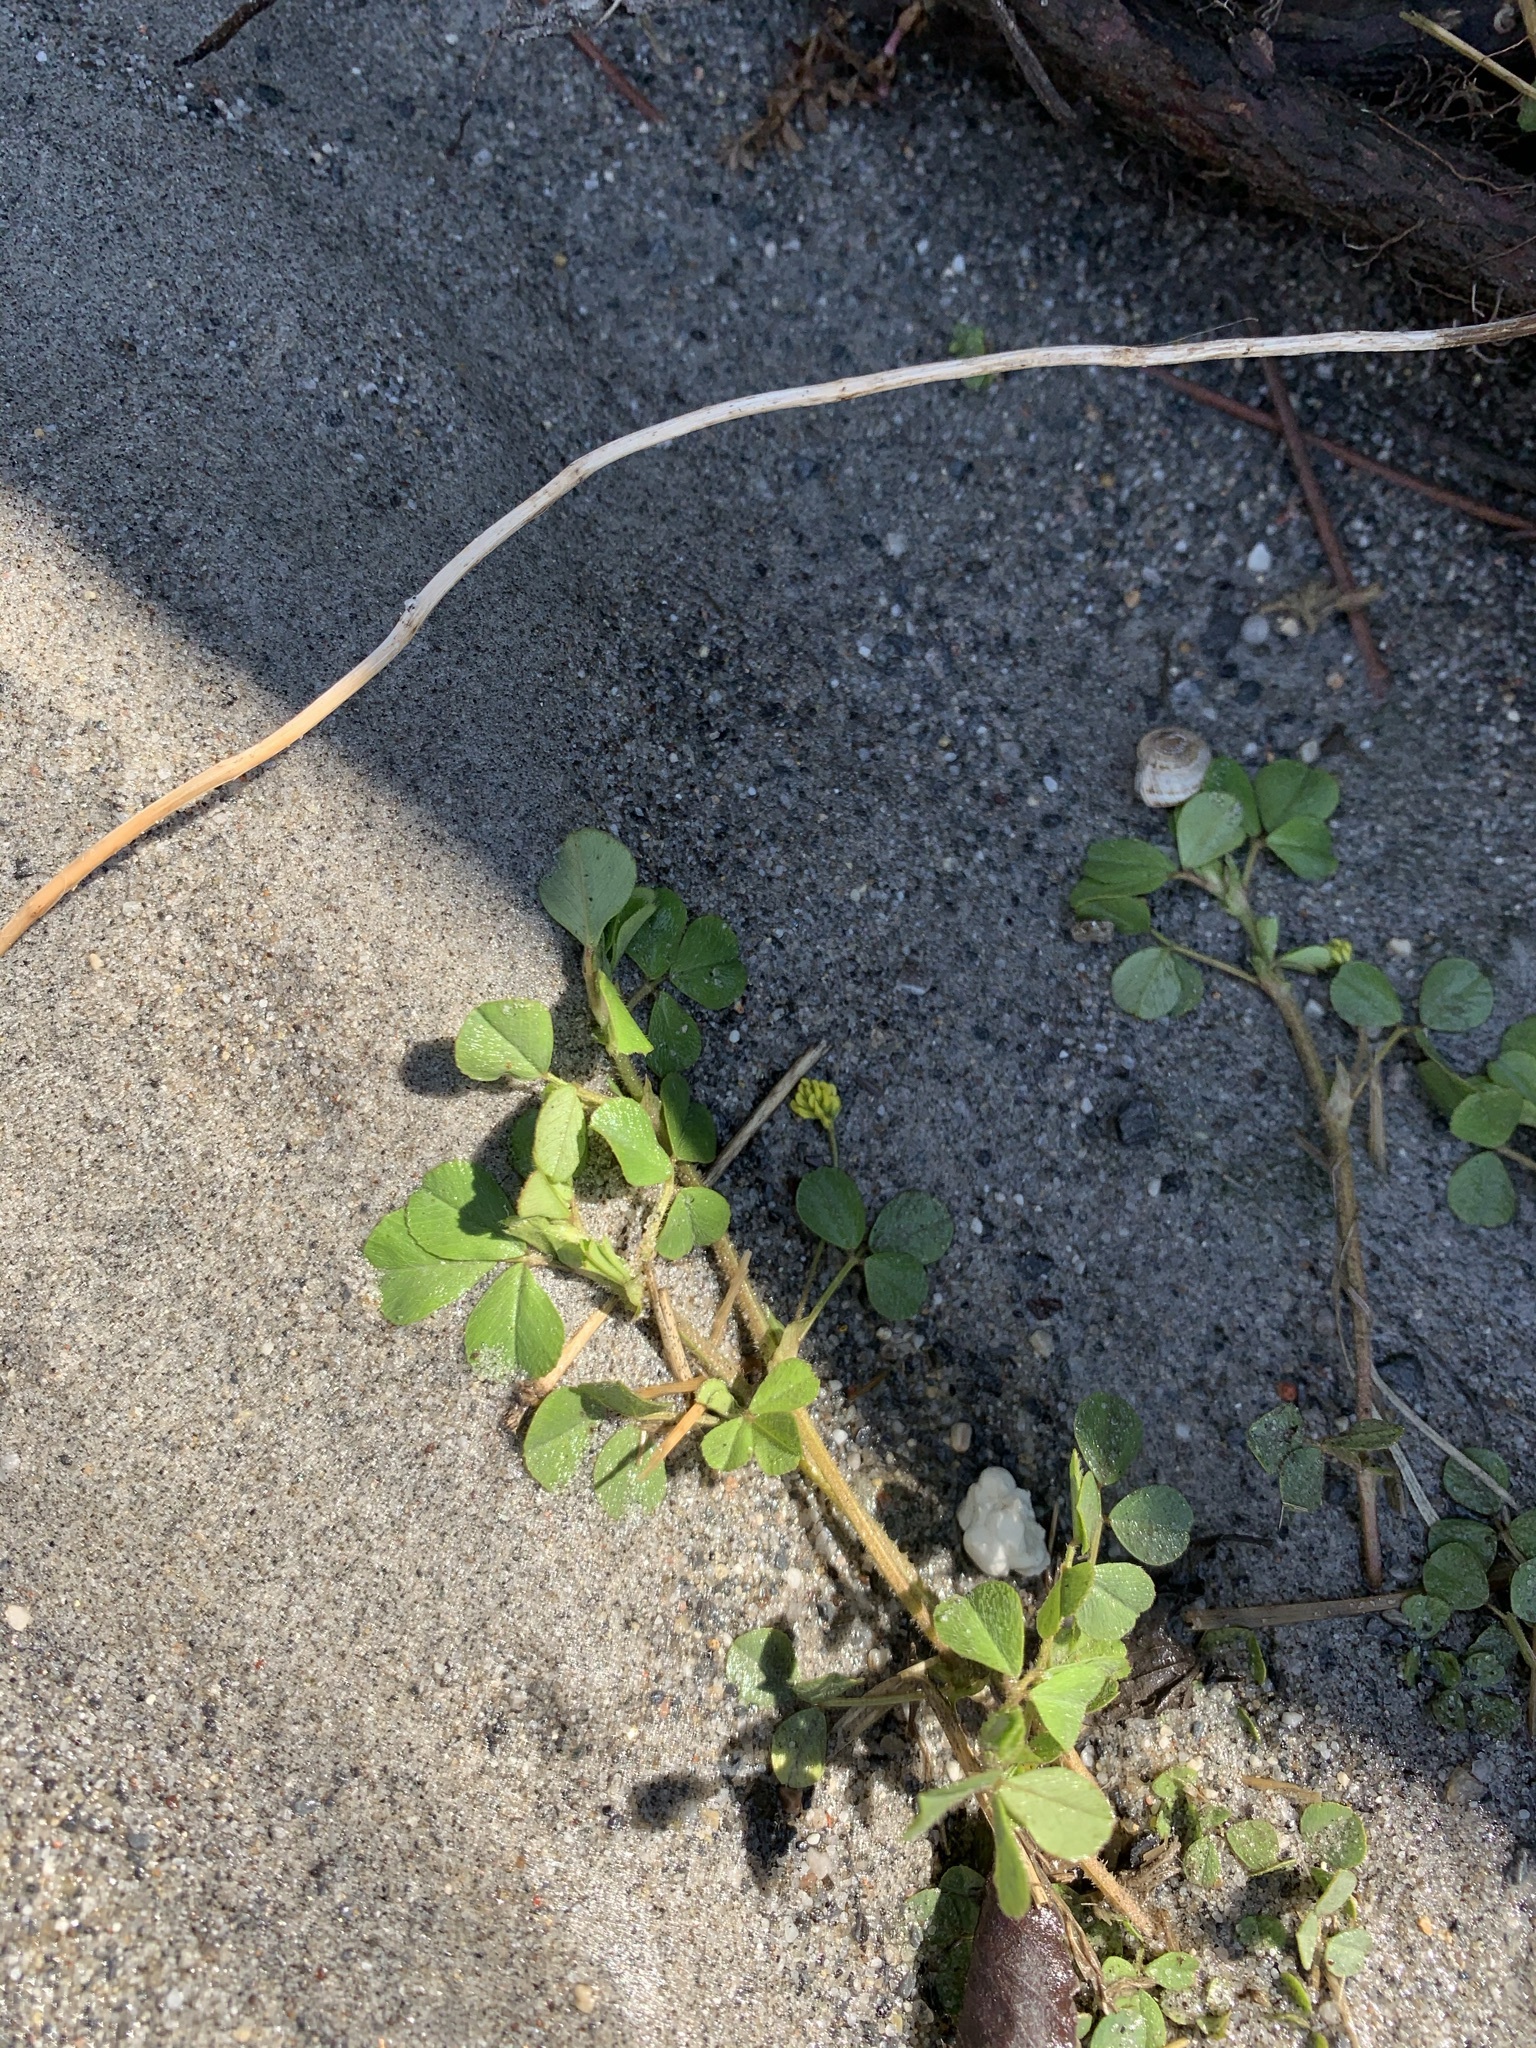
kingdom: Plantae
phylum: Tracheophyta
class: Magnoliopsida
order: Fabales
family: Fabaceae
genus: Medicago
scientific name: Medicago lupulina
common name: Black medick
